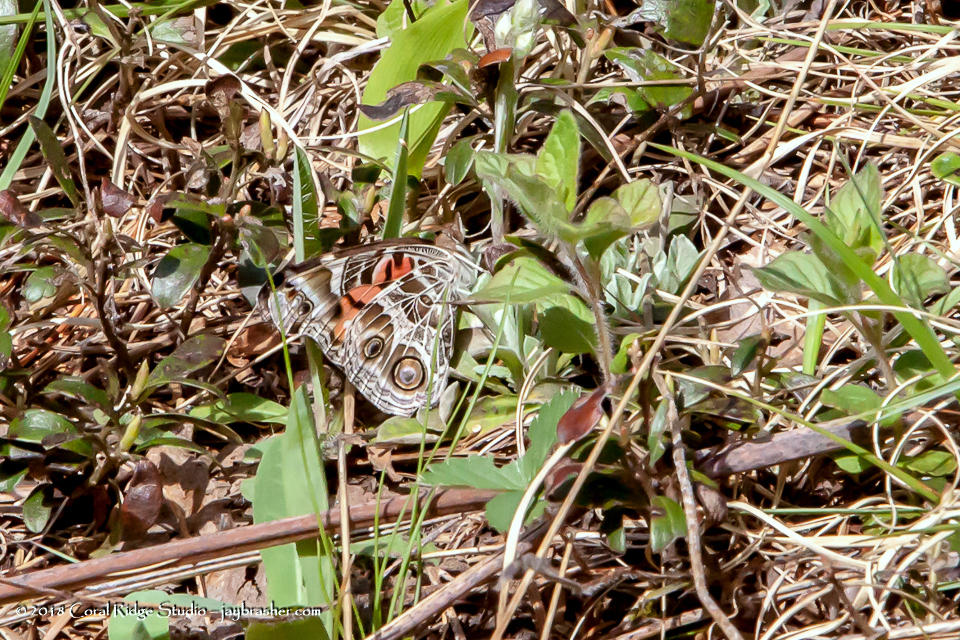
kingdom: Animalia
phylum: Arthropoda
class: Insecta
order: Lepidoptera
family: Nymphalidae
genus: Vanessa
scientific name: Vanessa virginiensis
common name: American lady
